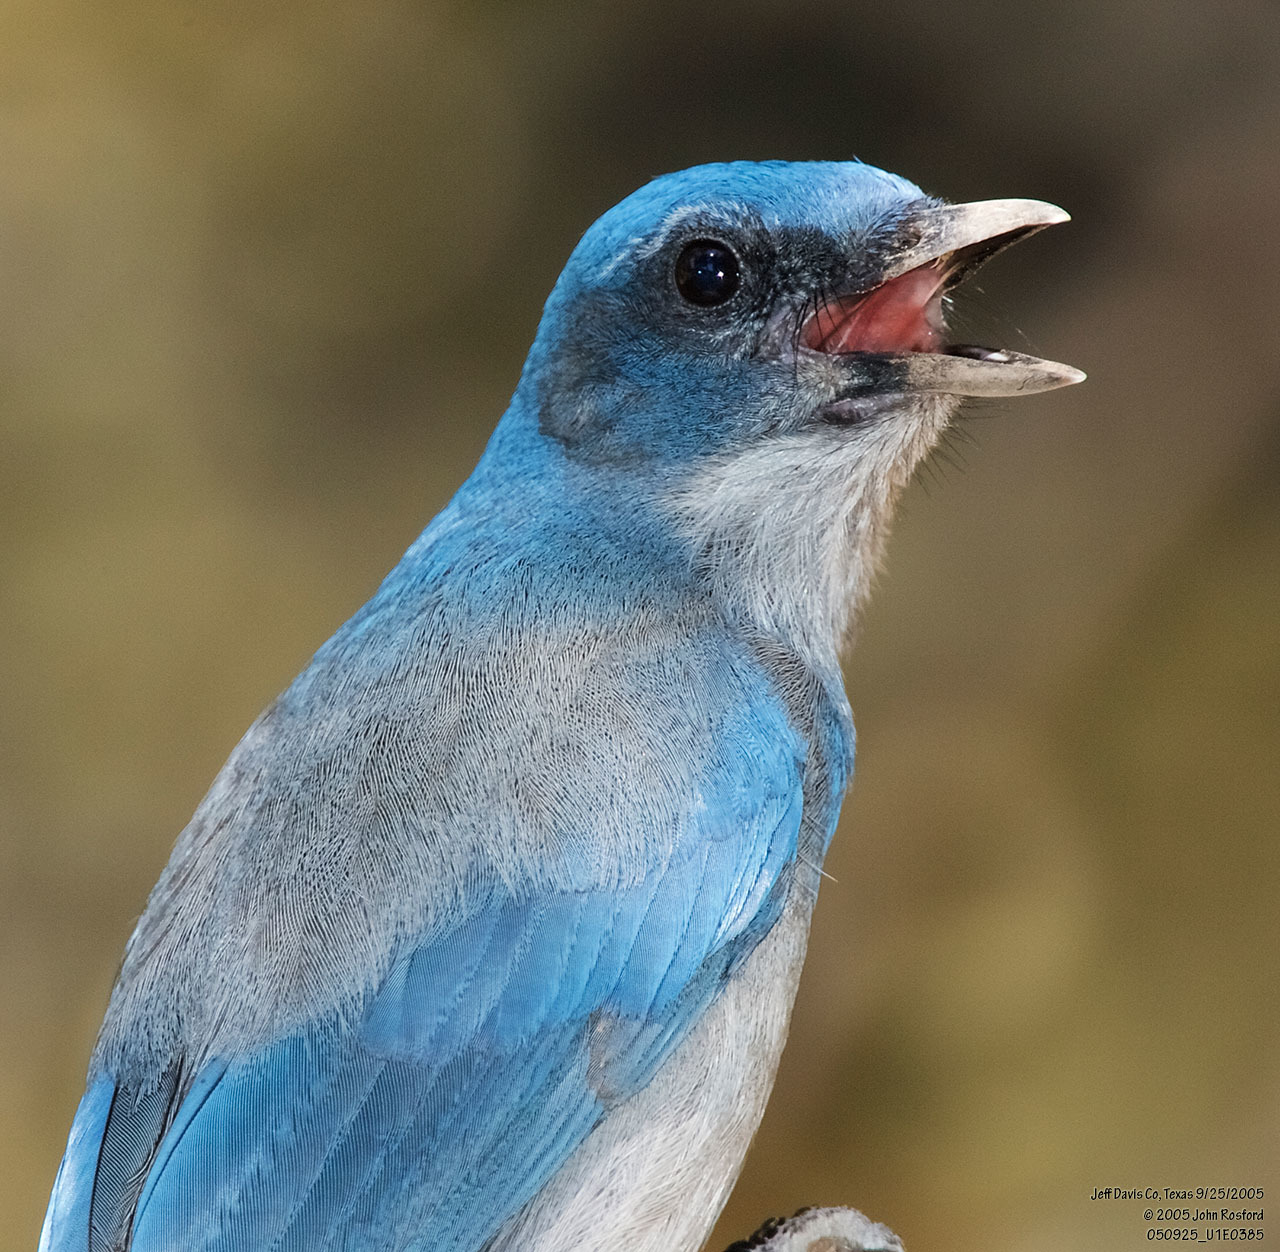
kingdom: Animalia
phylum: Chordata
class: Aves
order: Passeriformes
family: Corvidae
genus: Aphelocoma
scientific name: Aphelocoma woodhouseii
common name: Woodhouse's scrub-jay
